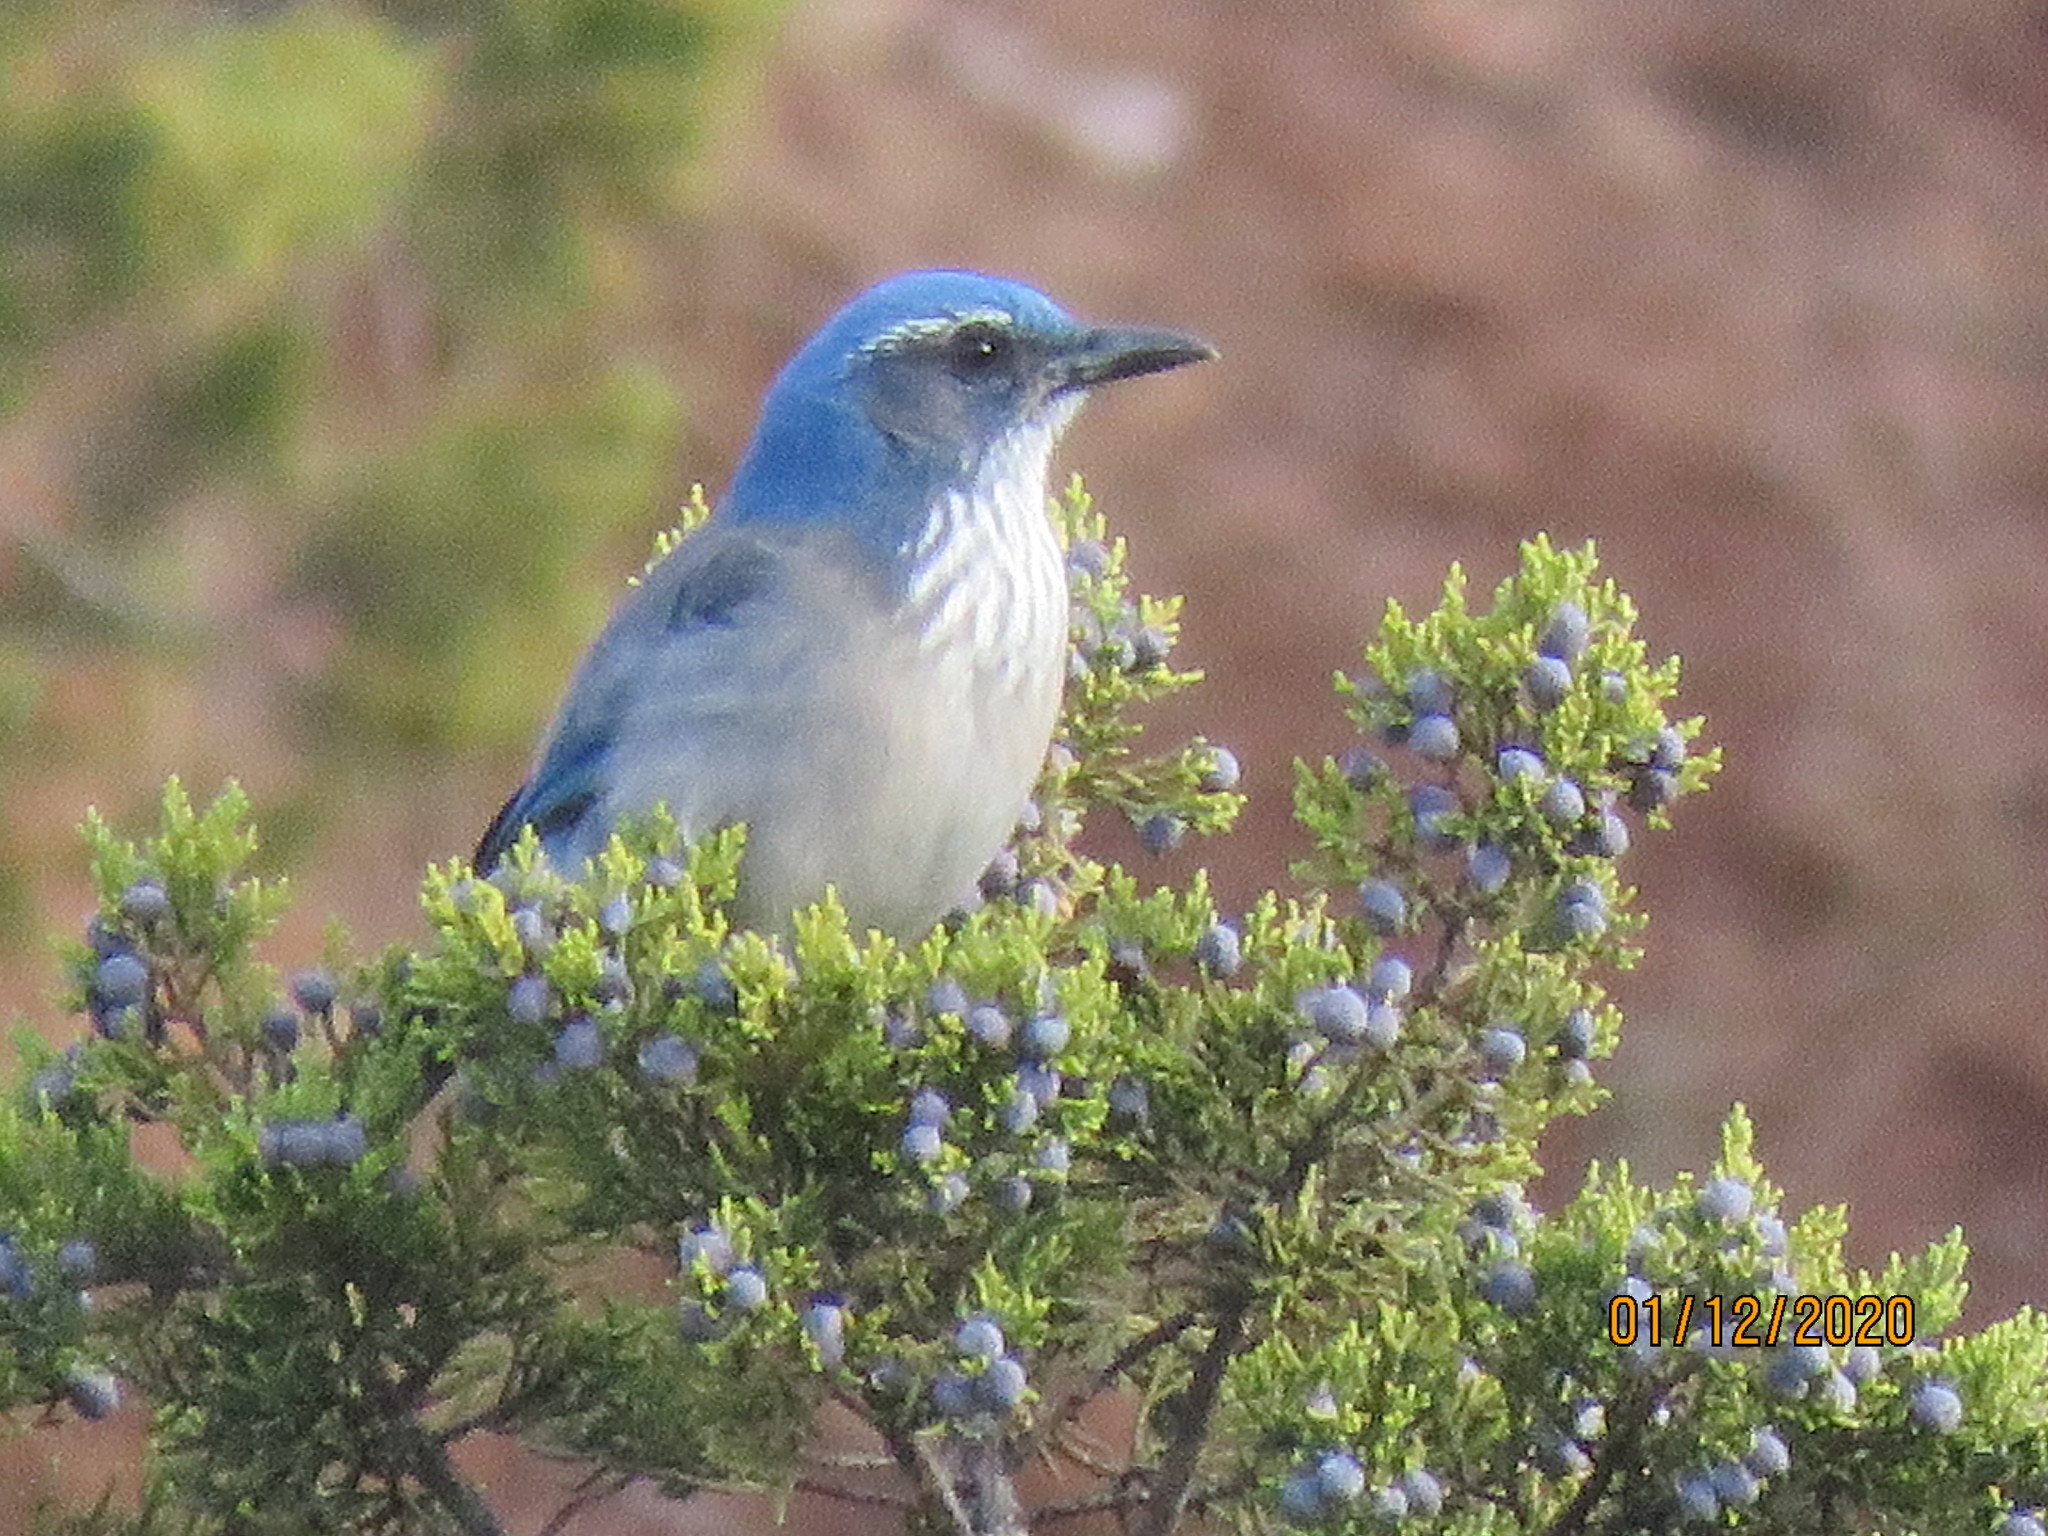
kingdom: Animalia
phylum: Chordata
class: Aves
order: Passeriformes
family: Corvidae
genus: Aphelocoma
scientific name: Aphelocoma woodhouseii
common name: Woodhouse's scrub-jay
